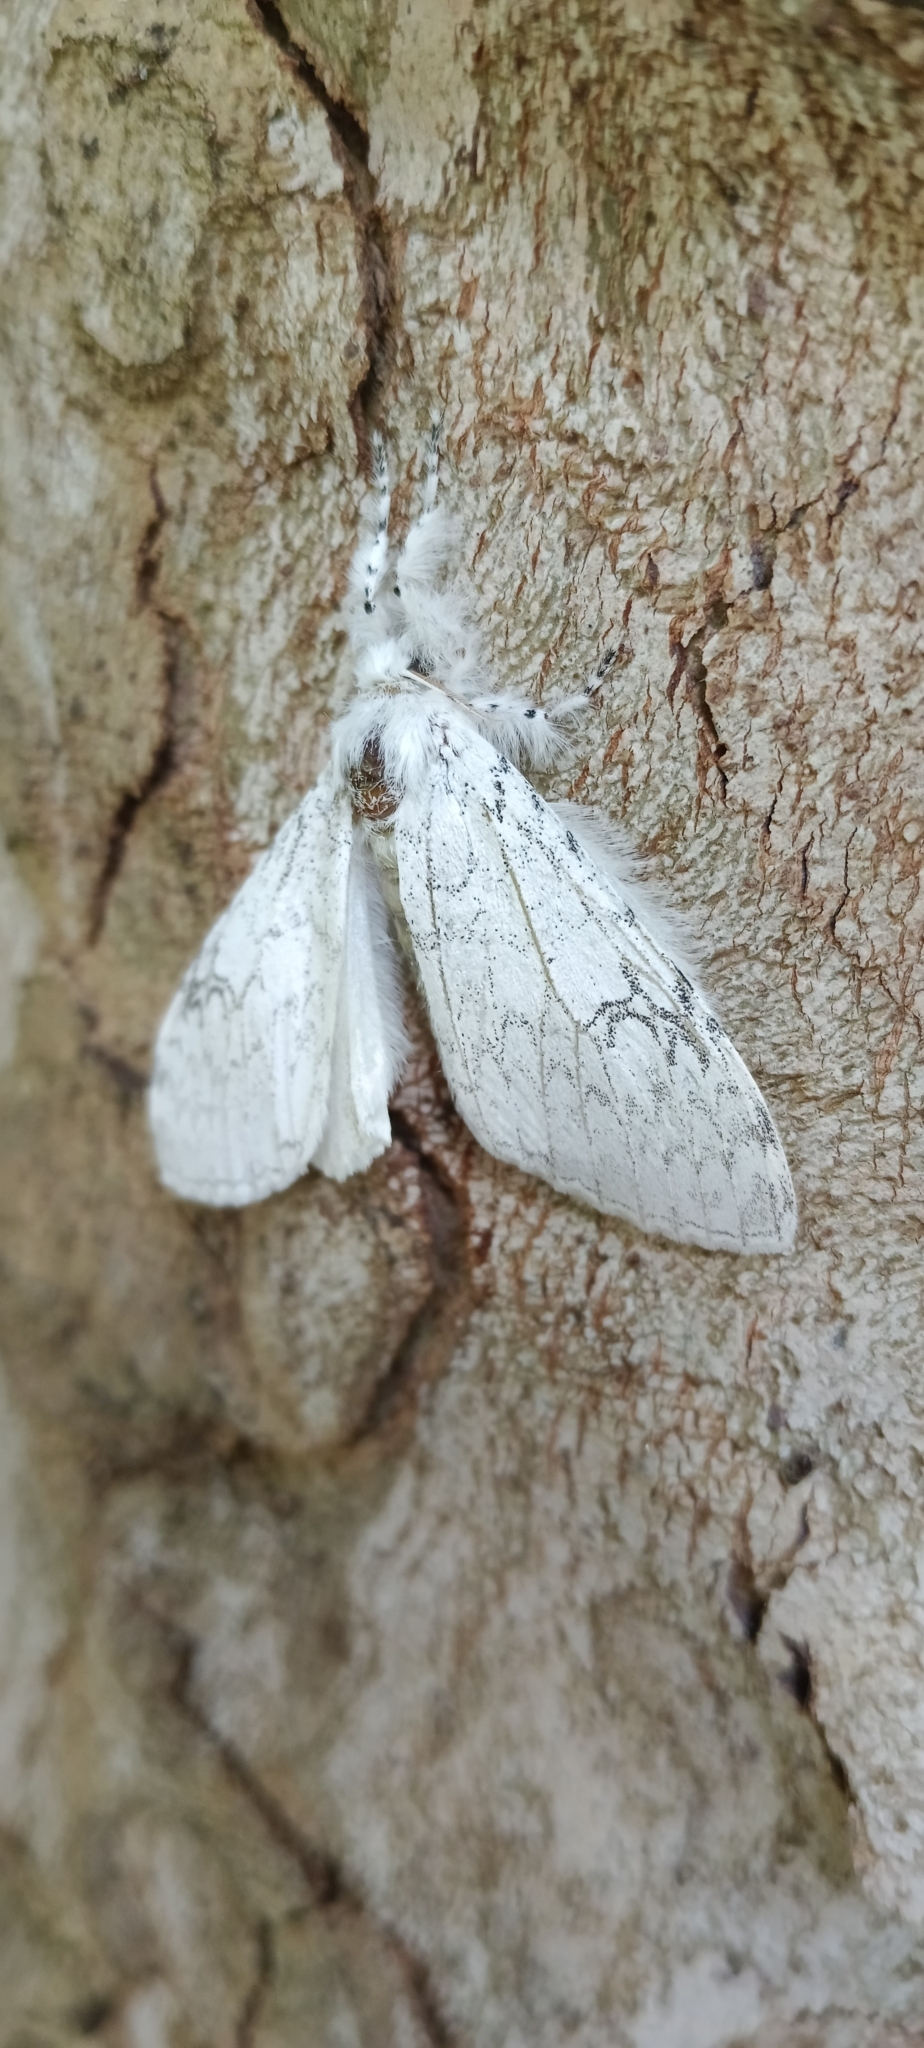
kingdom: Animalia
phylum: Arthropoda
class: Insecta
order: Lepidoptera
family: Erebidae
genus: Dasychira
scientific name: Dasychira georgiana
